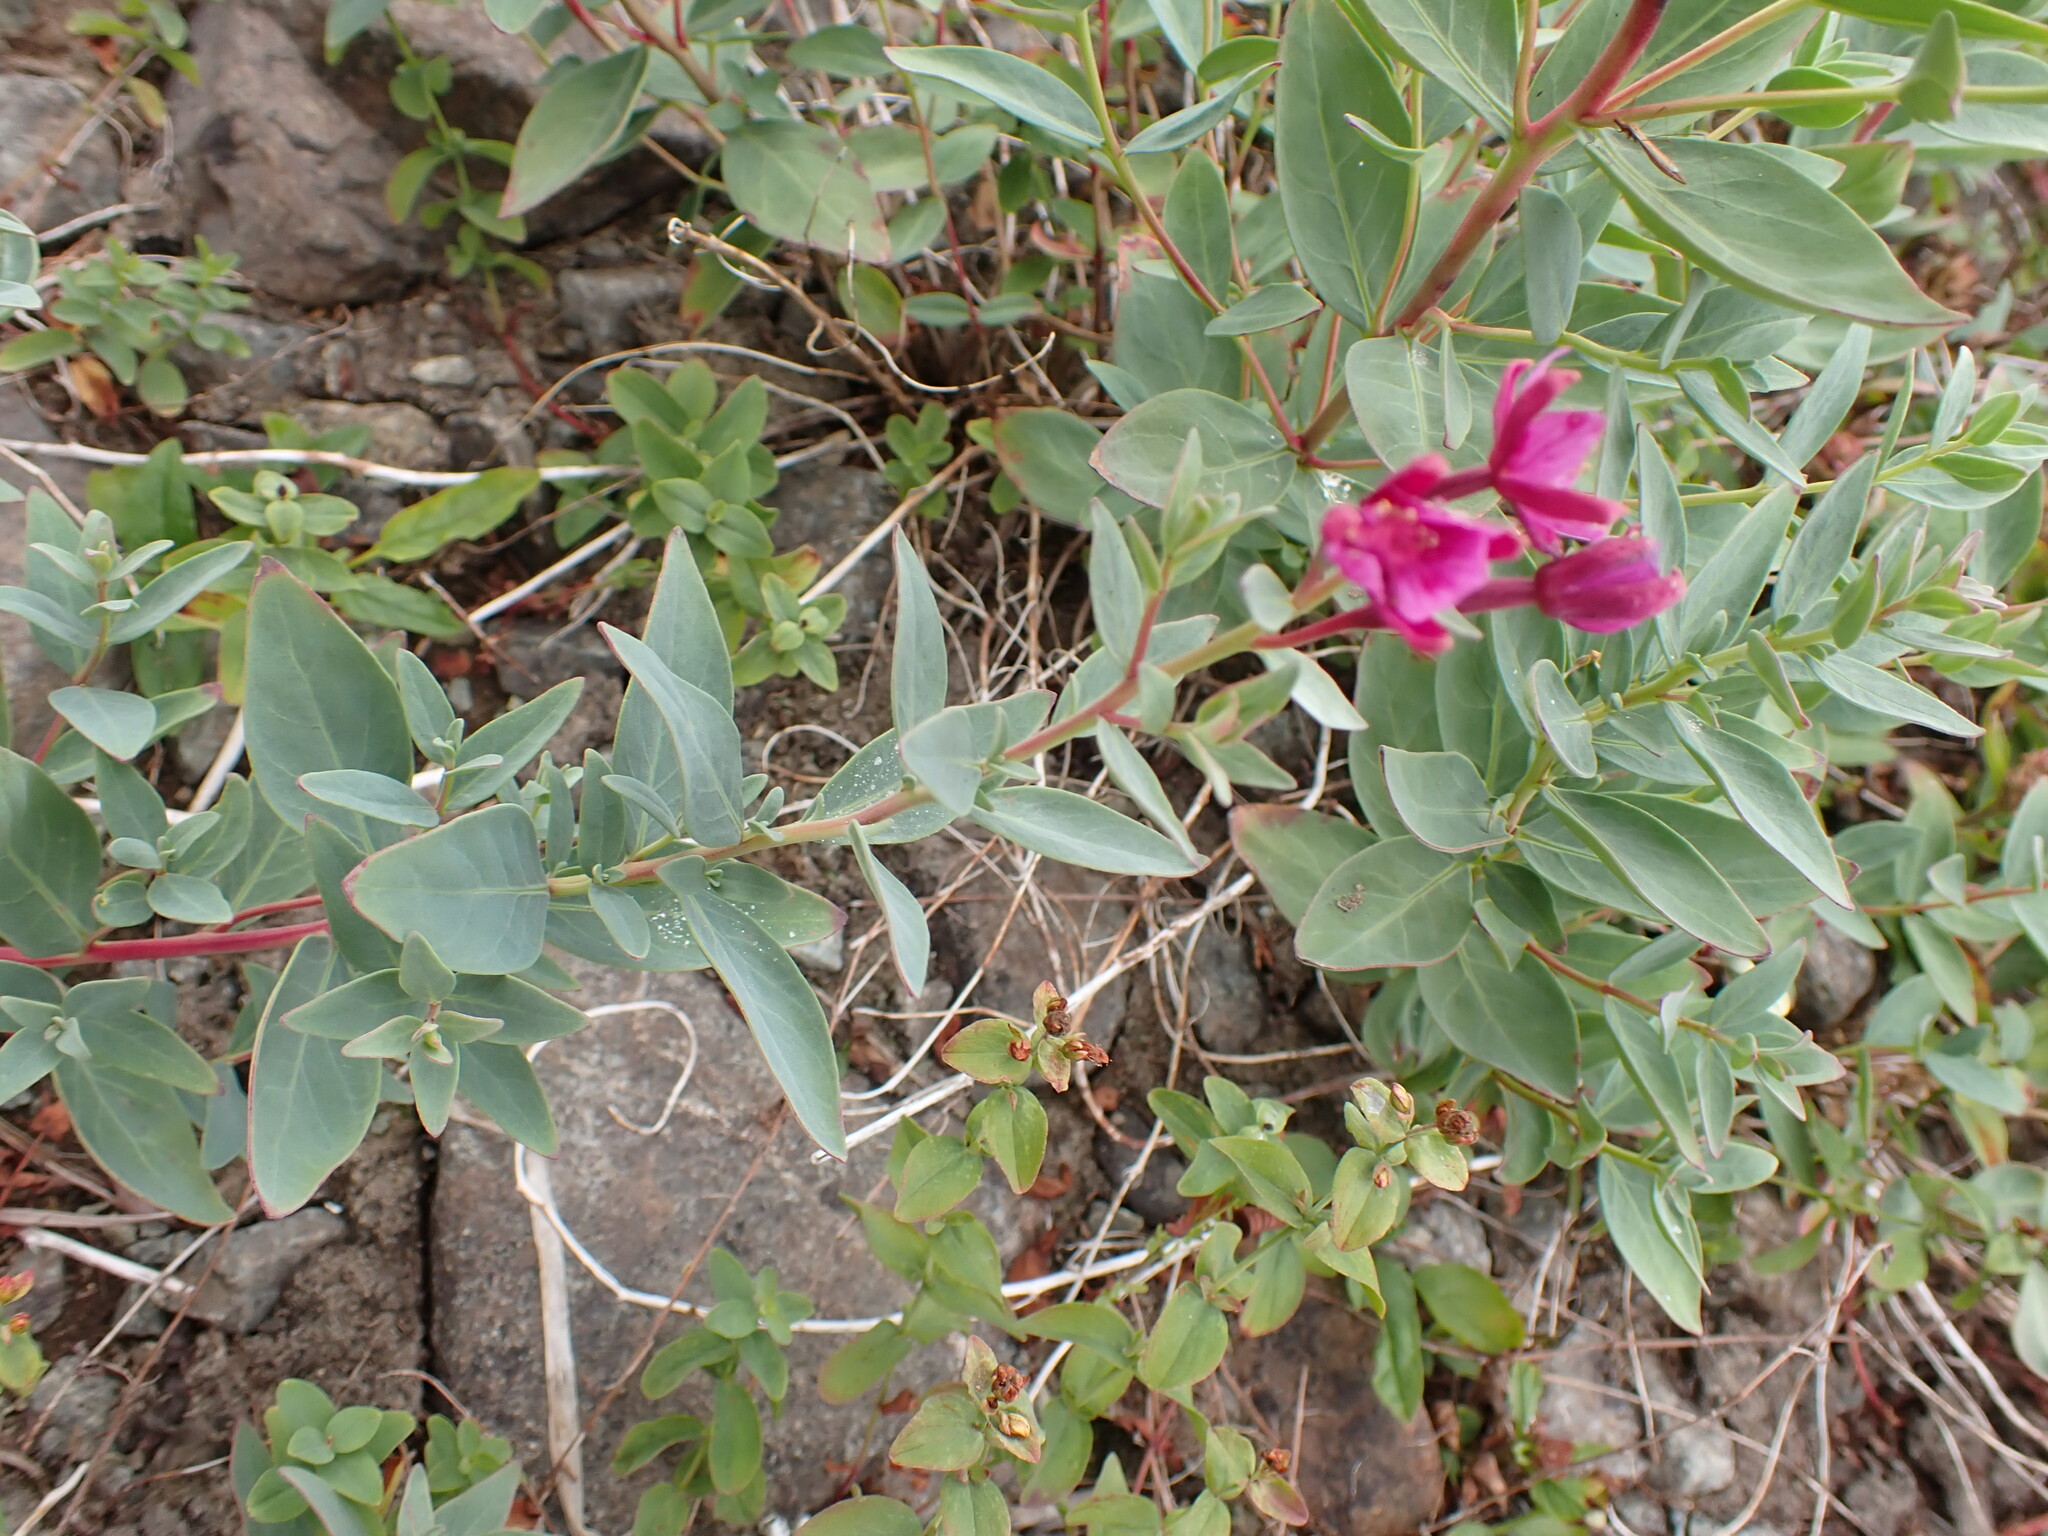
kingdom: Plantae
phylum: Tracheophyta
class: Magnoliopsida
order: Myrtales
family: Onagraceae
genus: Chamaenerion
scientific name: Chamaenerion latifolium
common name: Dwarf fireweed
